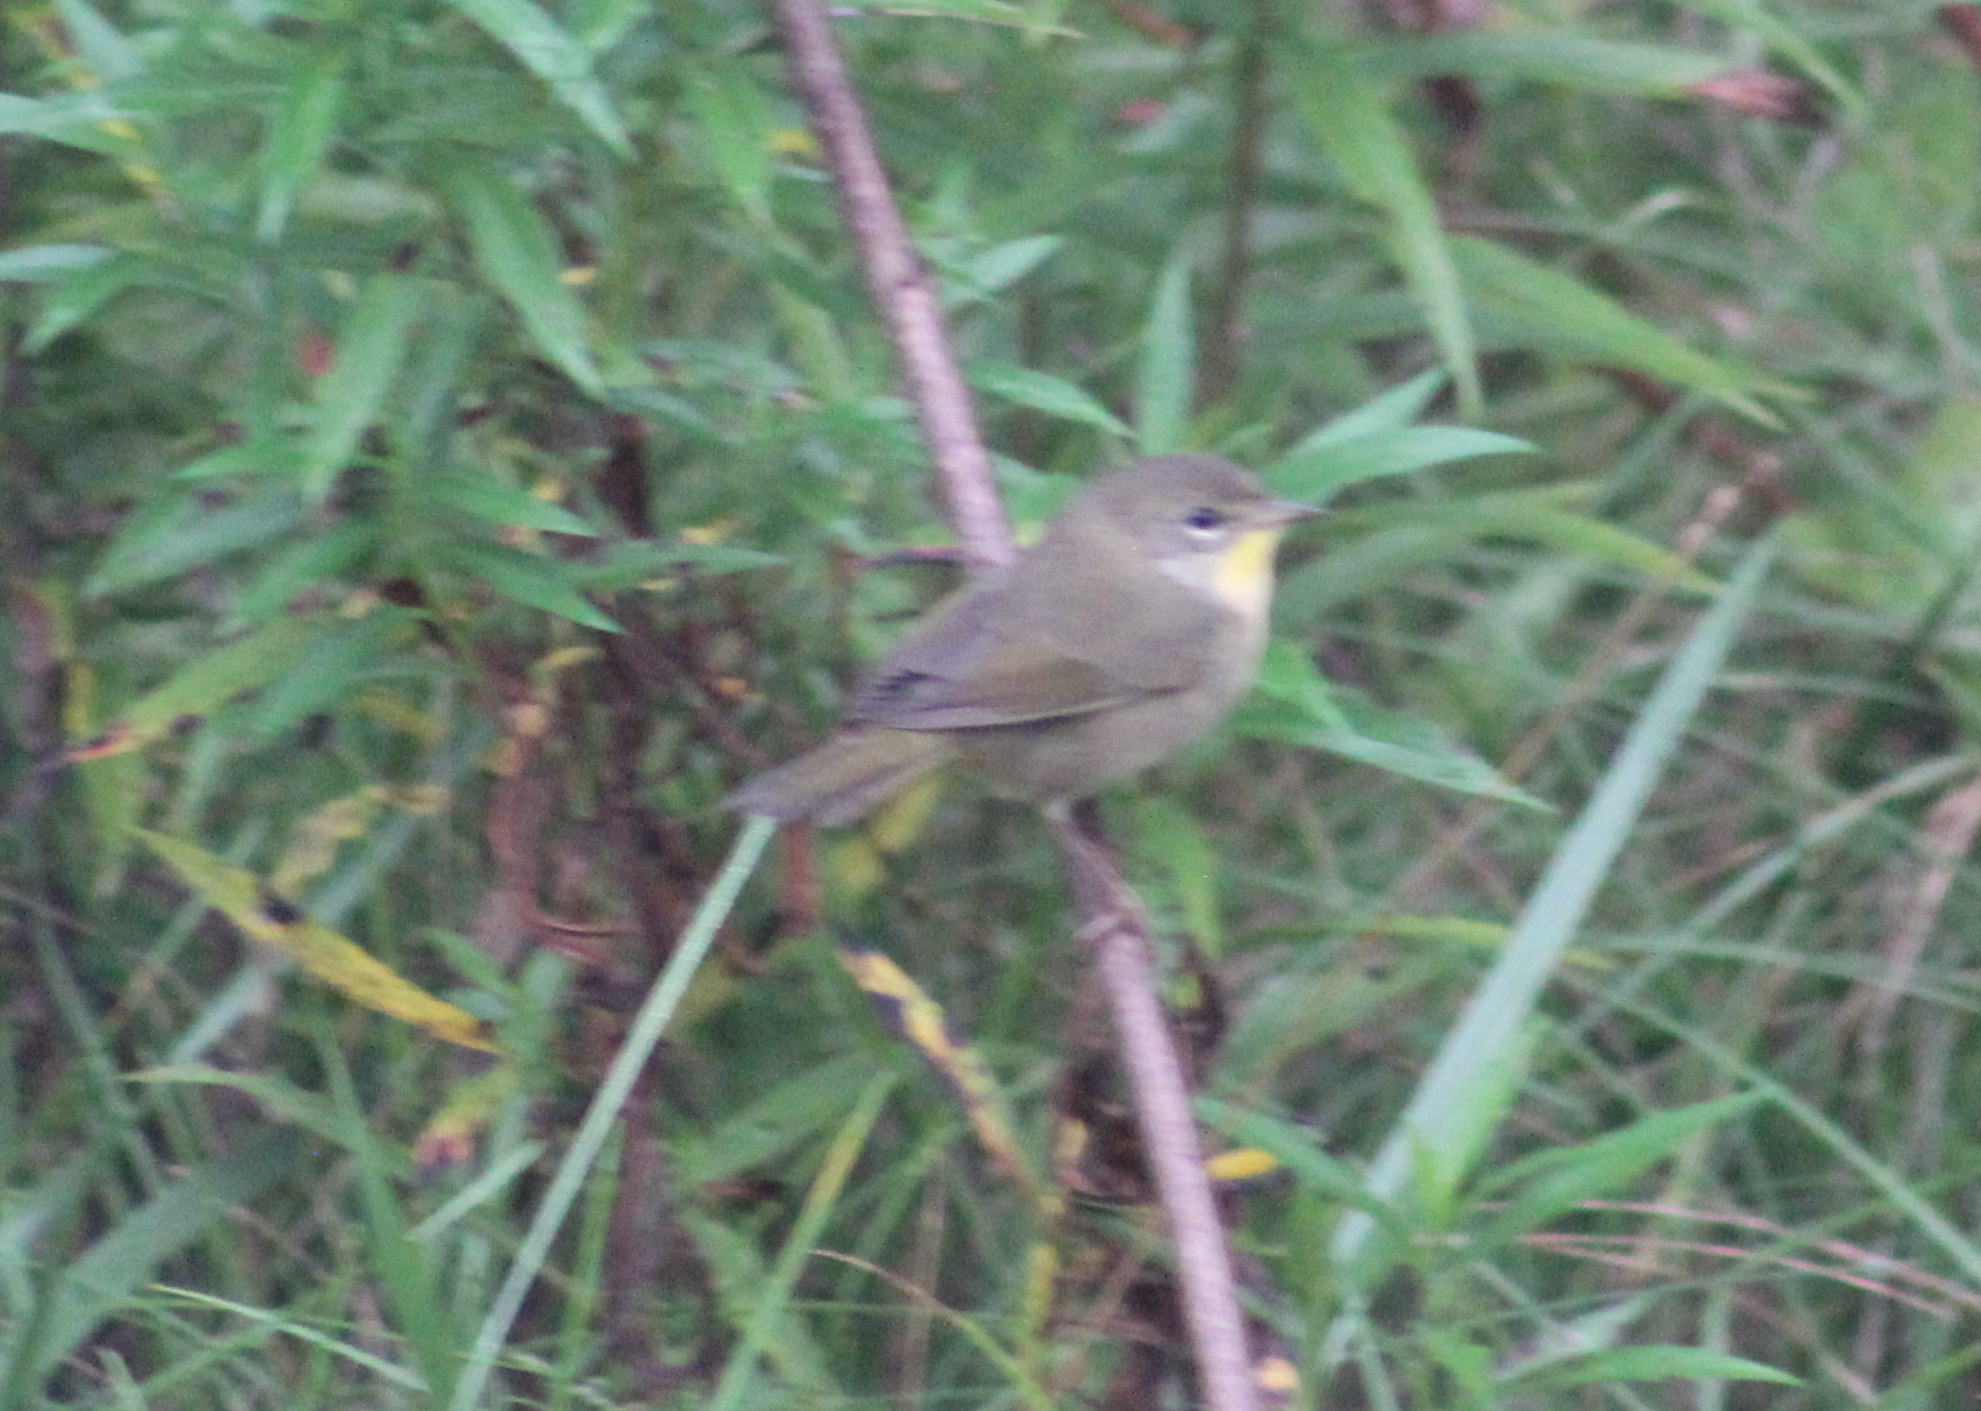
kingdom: Animalia
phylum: Chordata
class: Aves
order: Passeriformes
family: Parulidae
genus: Geothlypis
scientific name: Geothlypis trichas
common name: Common yellowthroat
